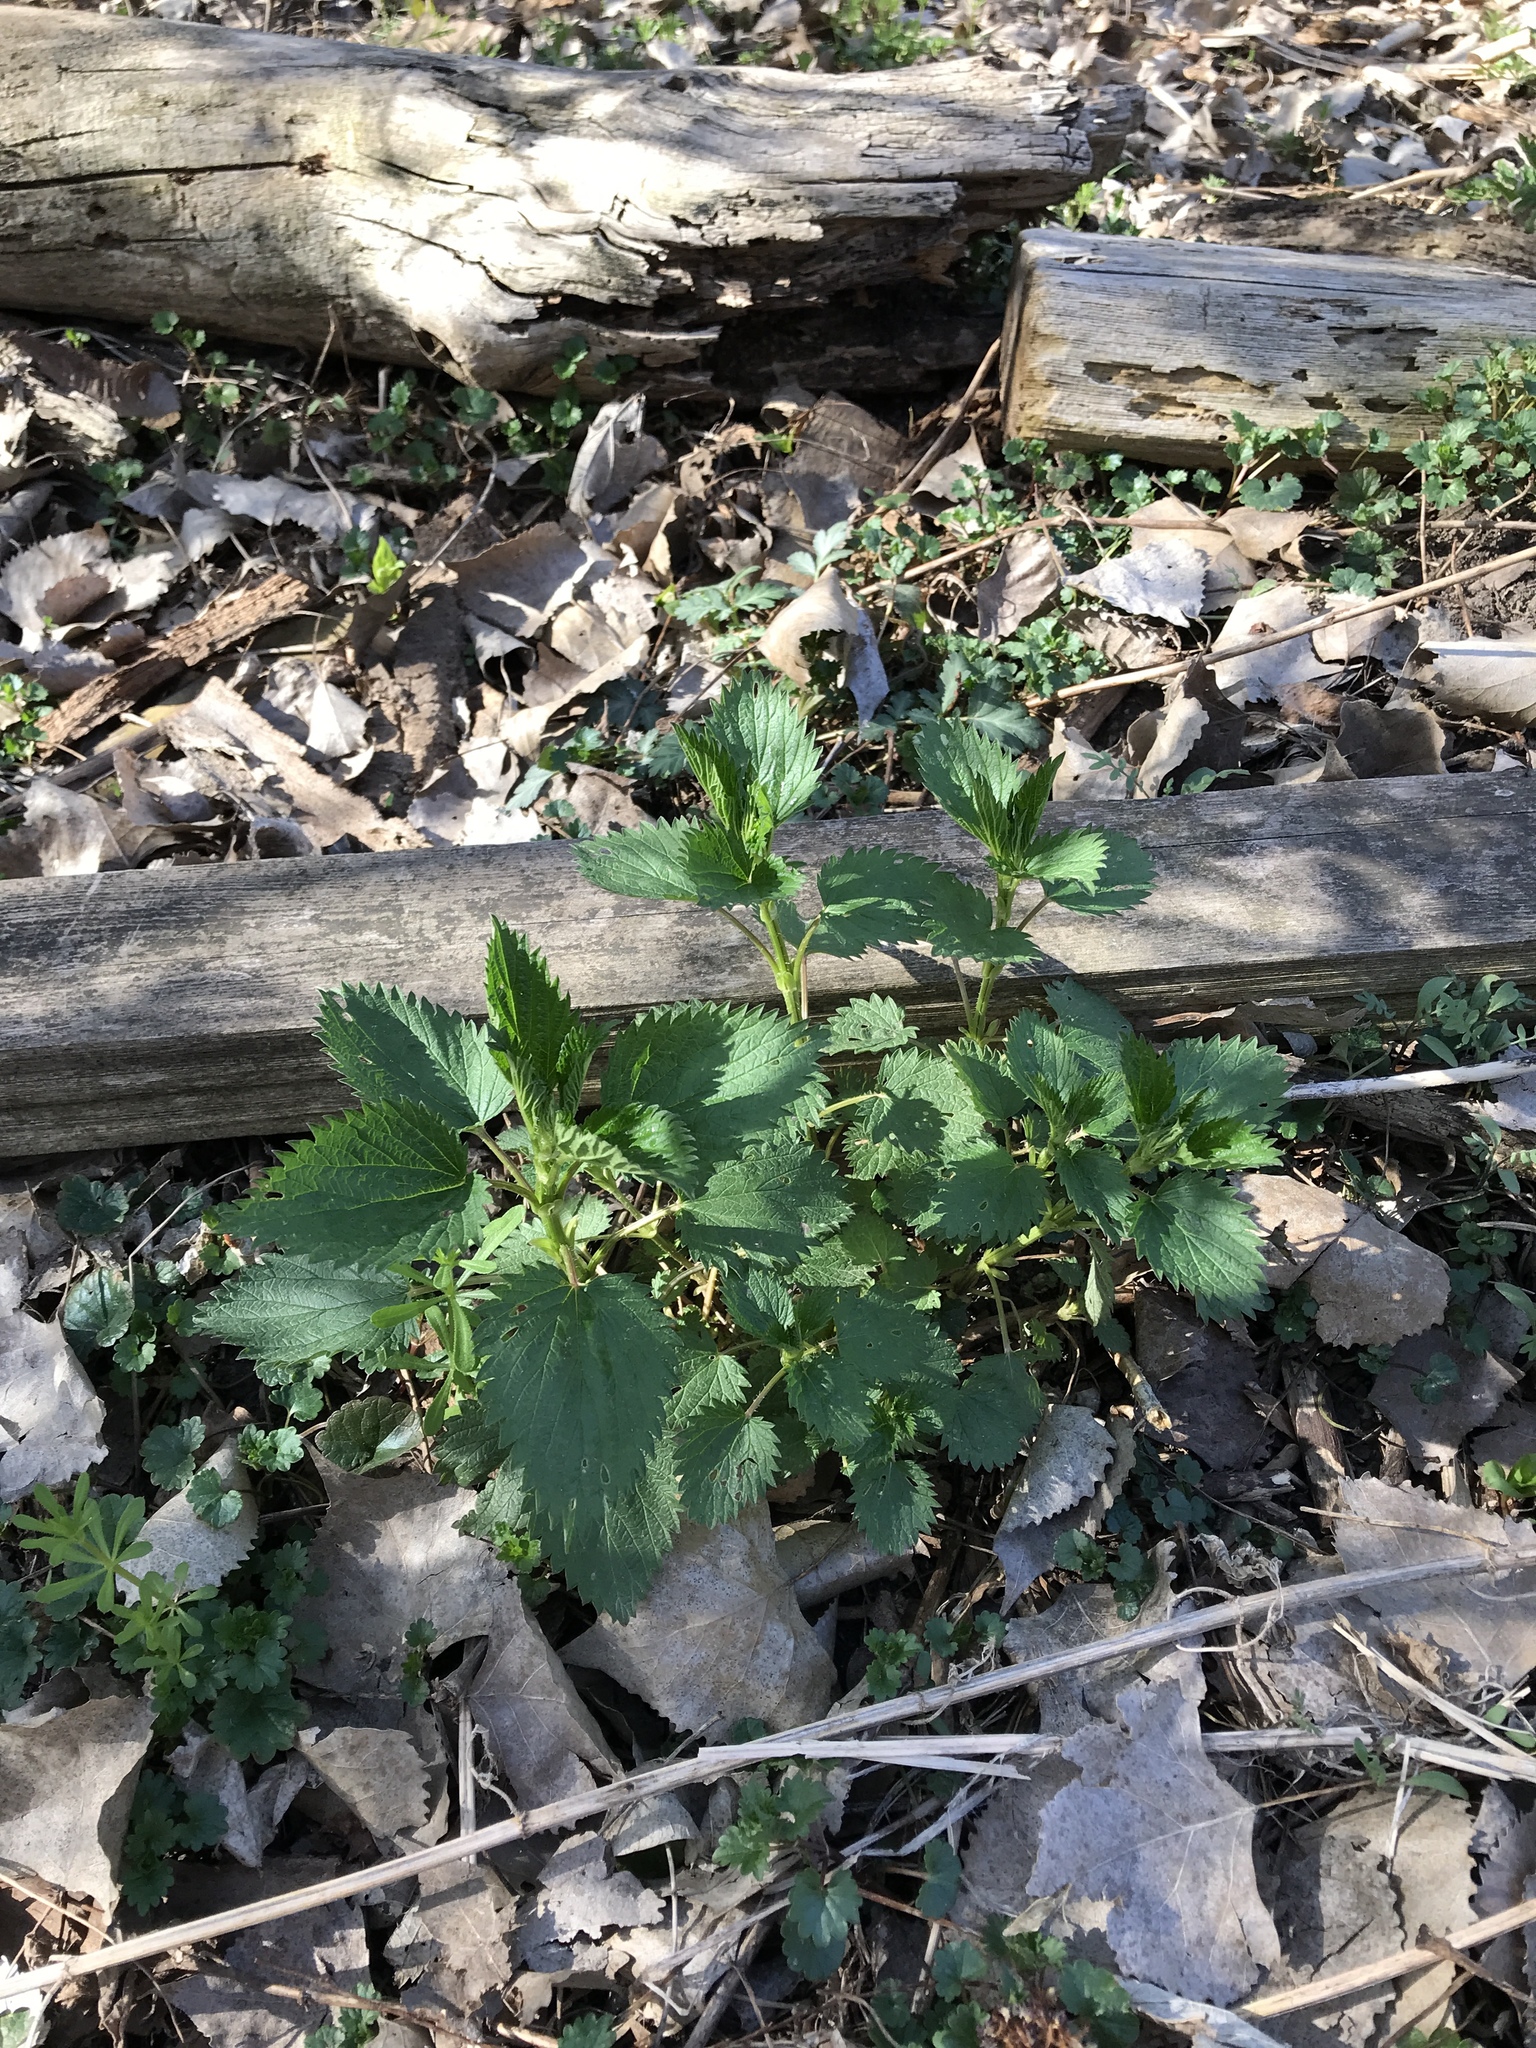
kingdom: Plantae
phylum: Tracheophyta
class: Magnoliopsida
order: Rosales
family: Urticaceae
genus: Urtica
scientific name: Urtica dioica
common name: Common nettle
